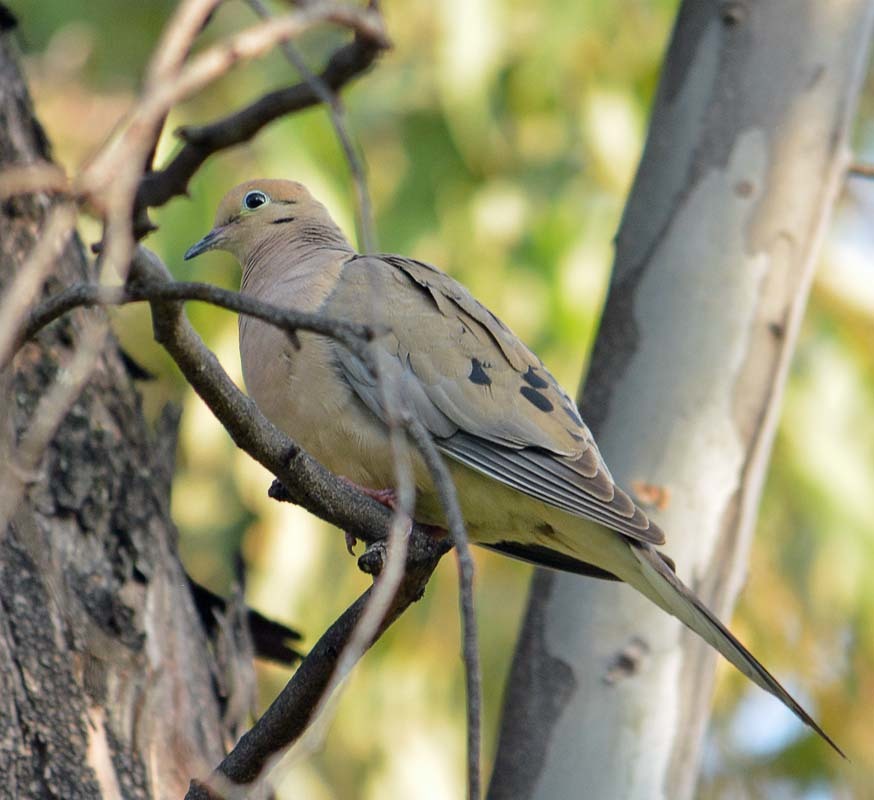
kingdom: Animalia
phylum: Chordata
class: Aves
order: Columbiformes
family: Columbidae
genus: Zenaida
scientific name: Zenaida macroura
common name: Mourning dove
